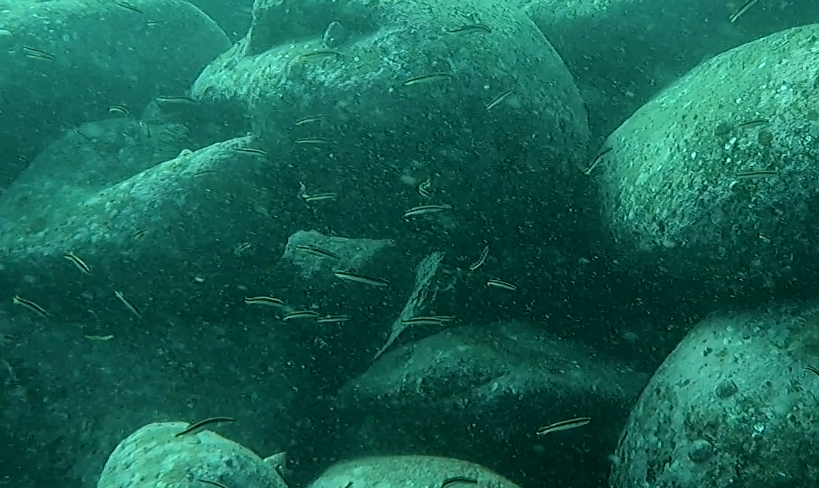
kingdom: Animalia
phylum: Chordata
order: Perciformes
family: Plesiopidae
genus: Trachinops
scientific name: Trachinops taeniatus
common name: Eastern hulafish
